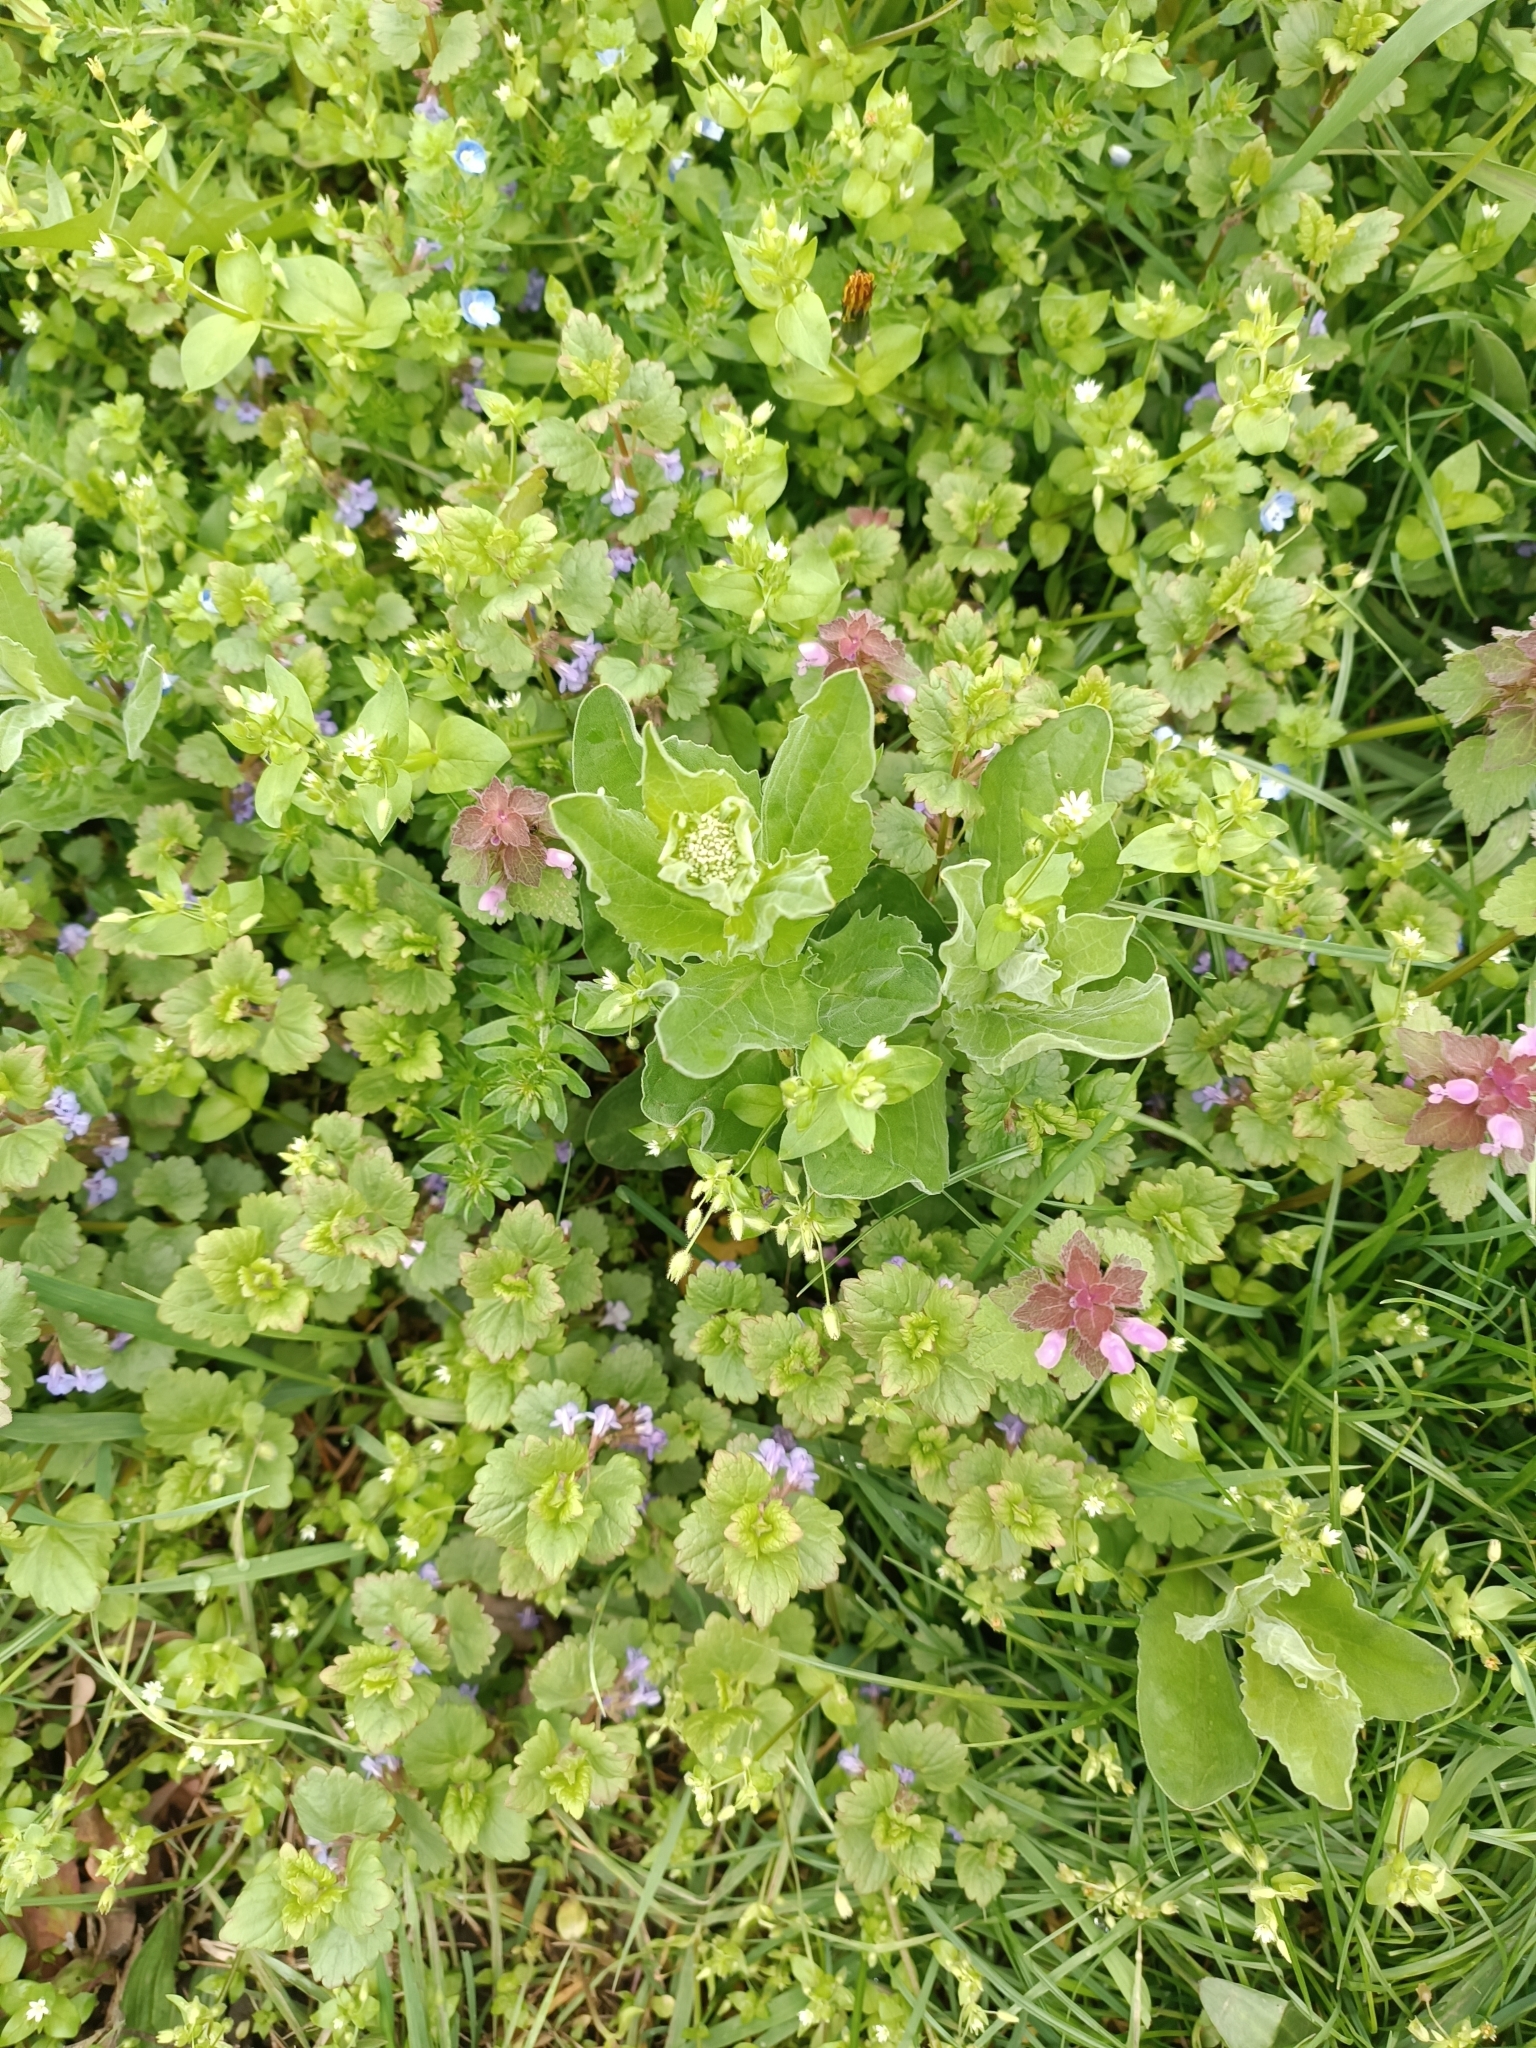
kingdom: Plantae
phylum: Tracheophyta
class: Magnoliopsida
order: Brassicales
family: Brassicaceae
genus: Lepidium
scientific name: Lepidium draba
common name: Hoary cress
